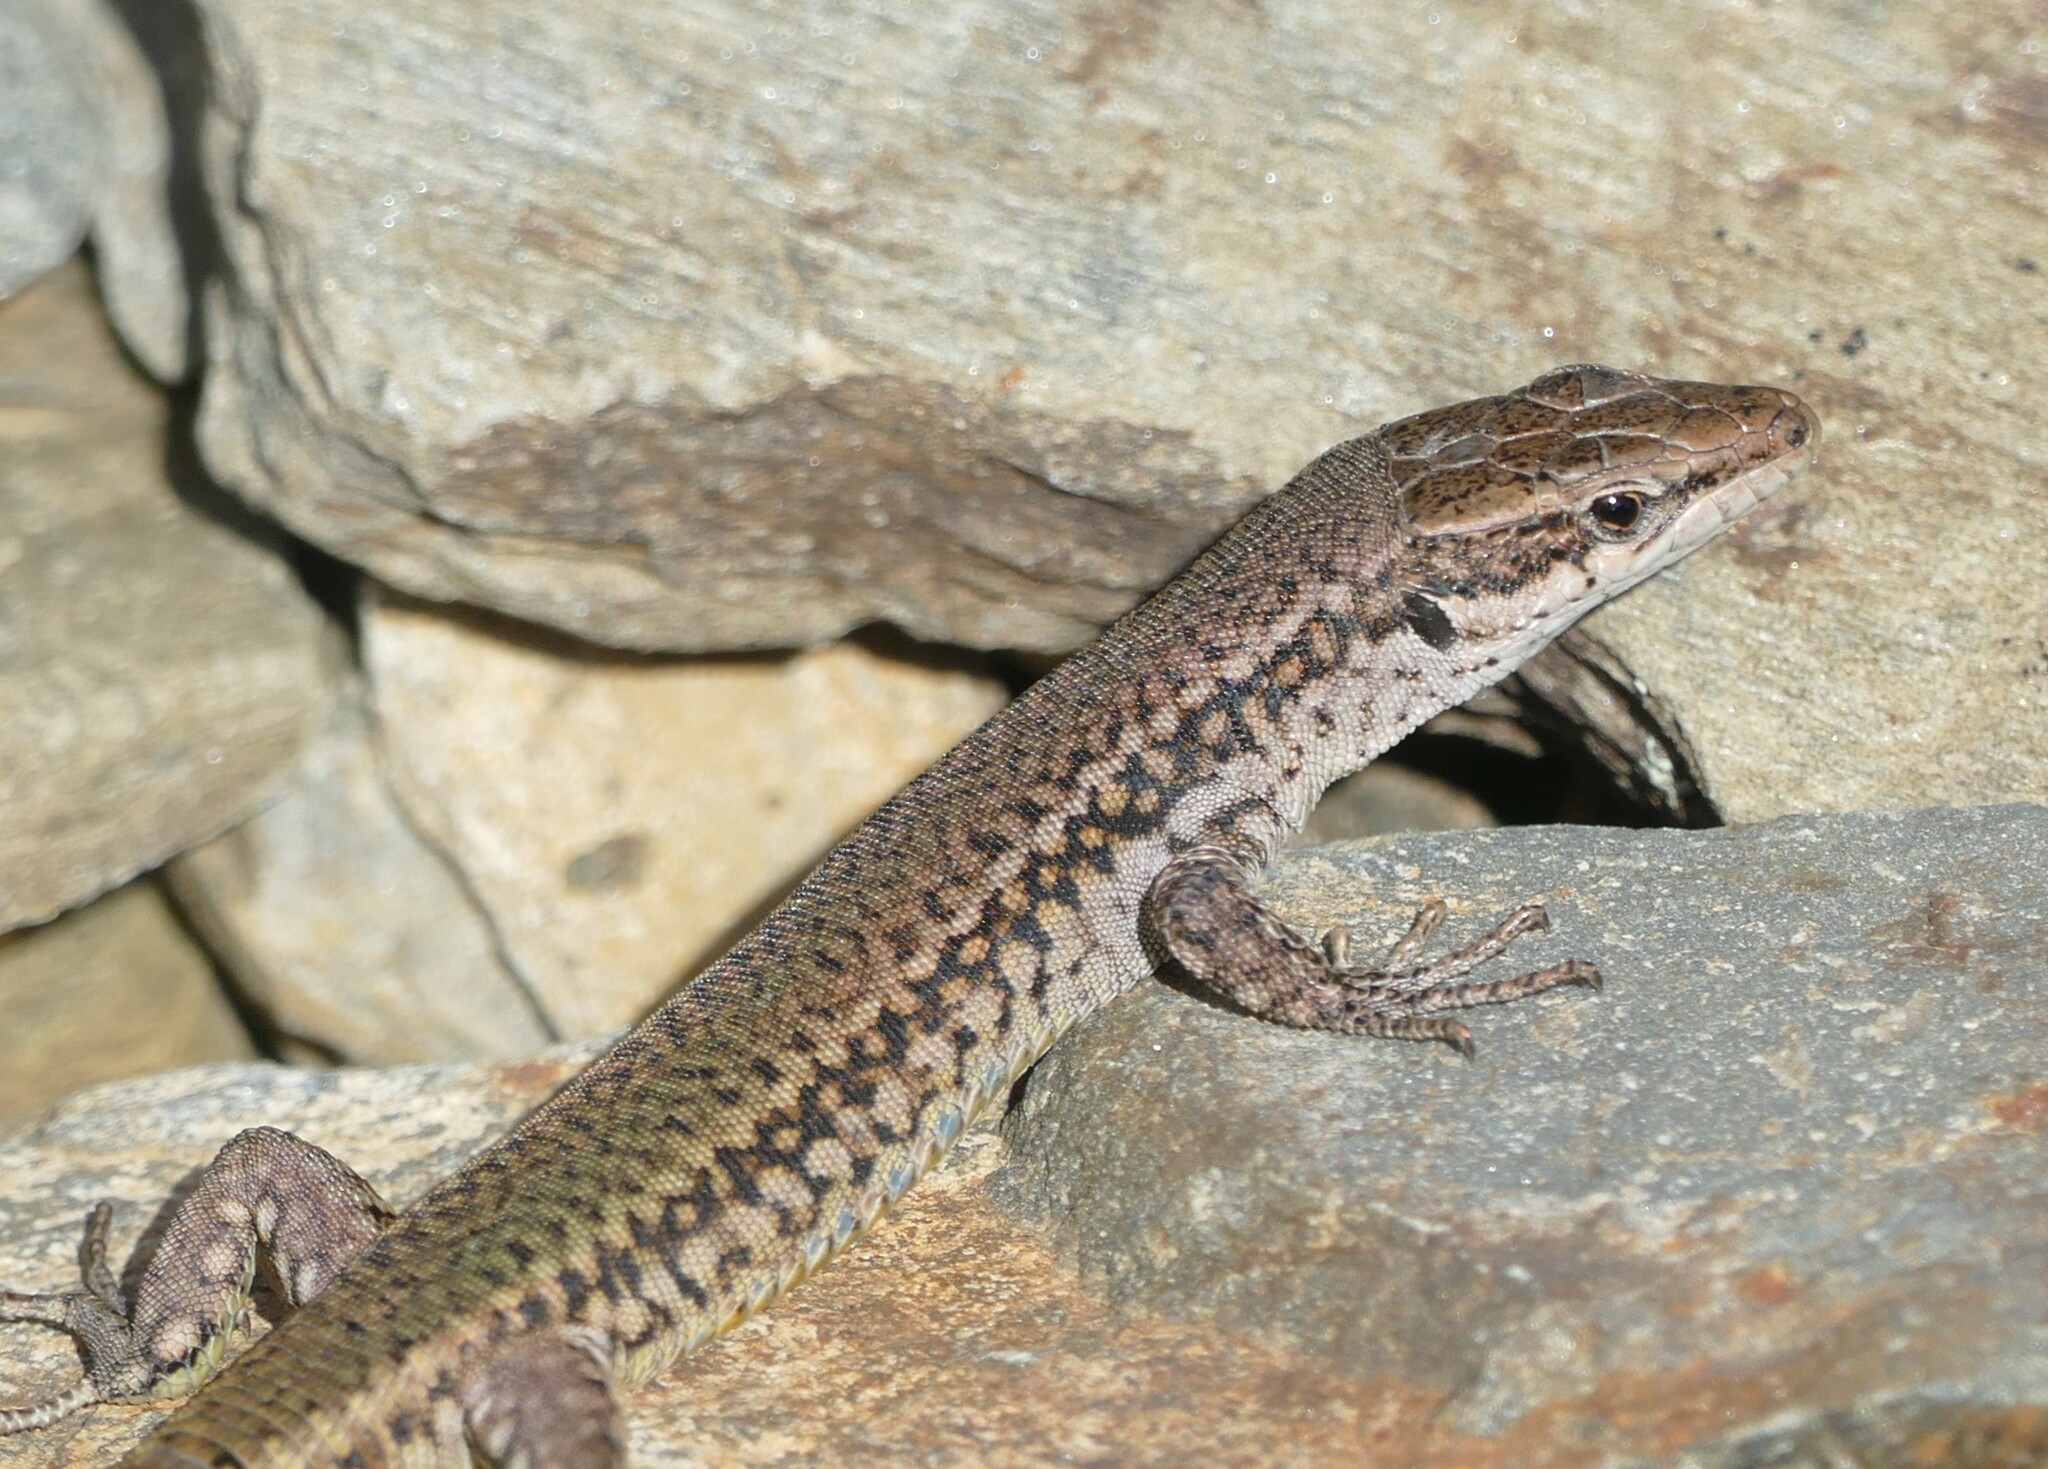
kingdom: Animalia
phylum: Chordata
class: Squamata
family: Lacertidae
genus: Podarcis
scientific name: Podarcis virescens
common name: Geniez’s wall lizard
